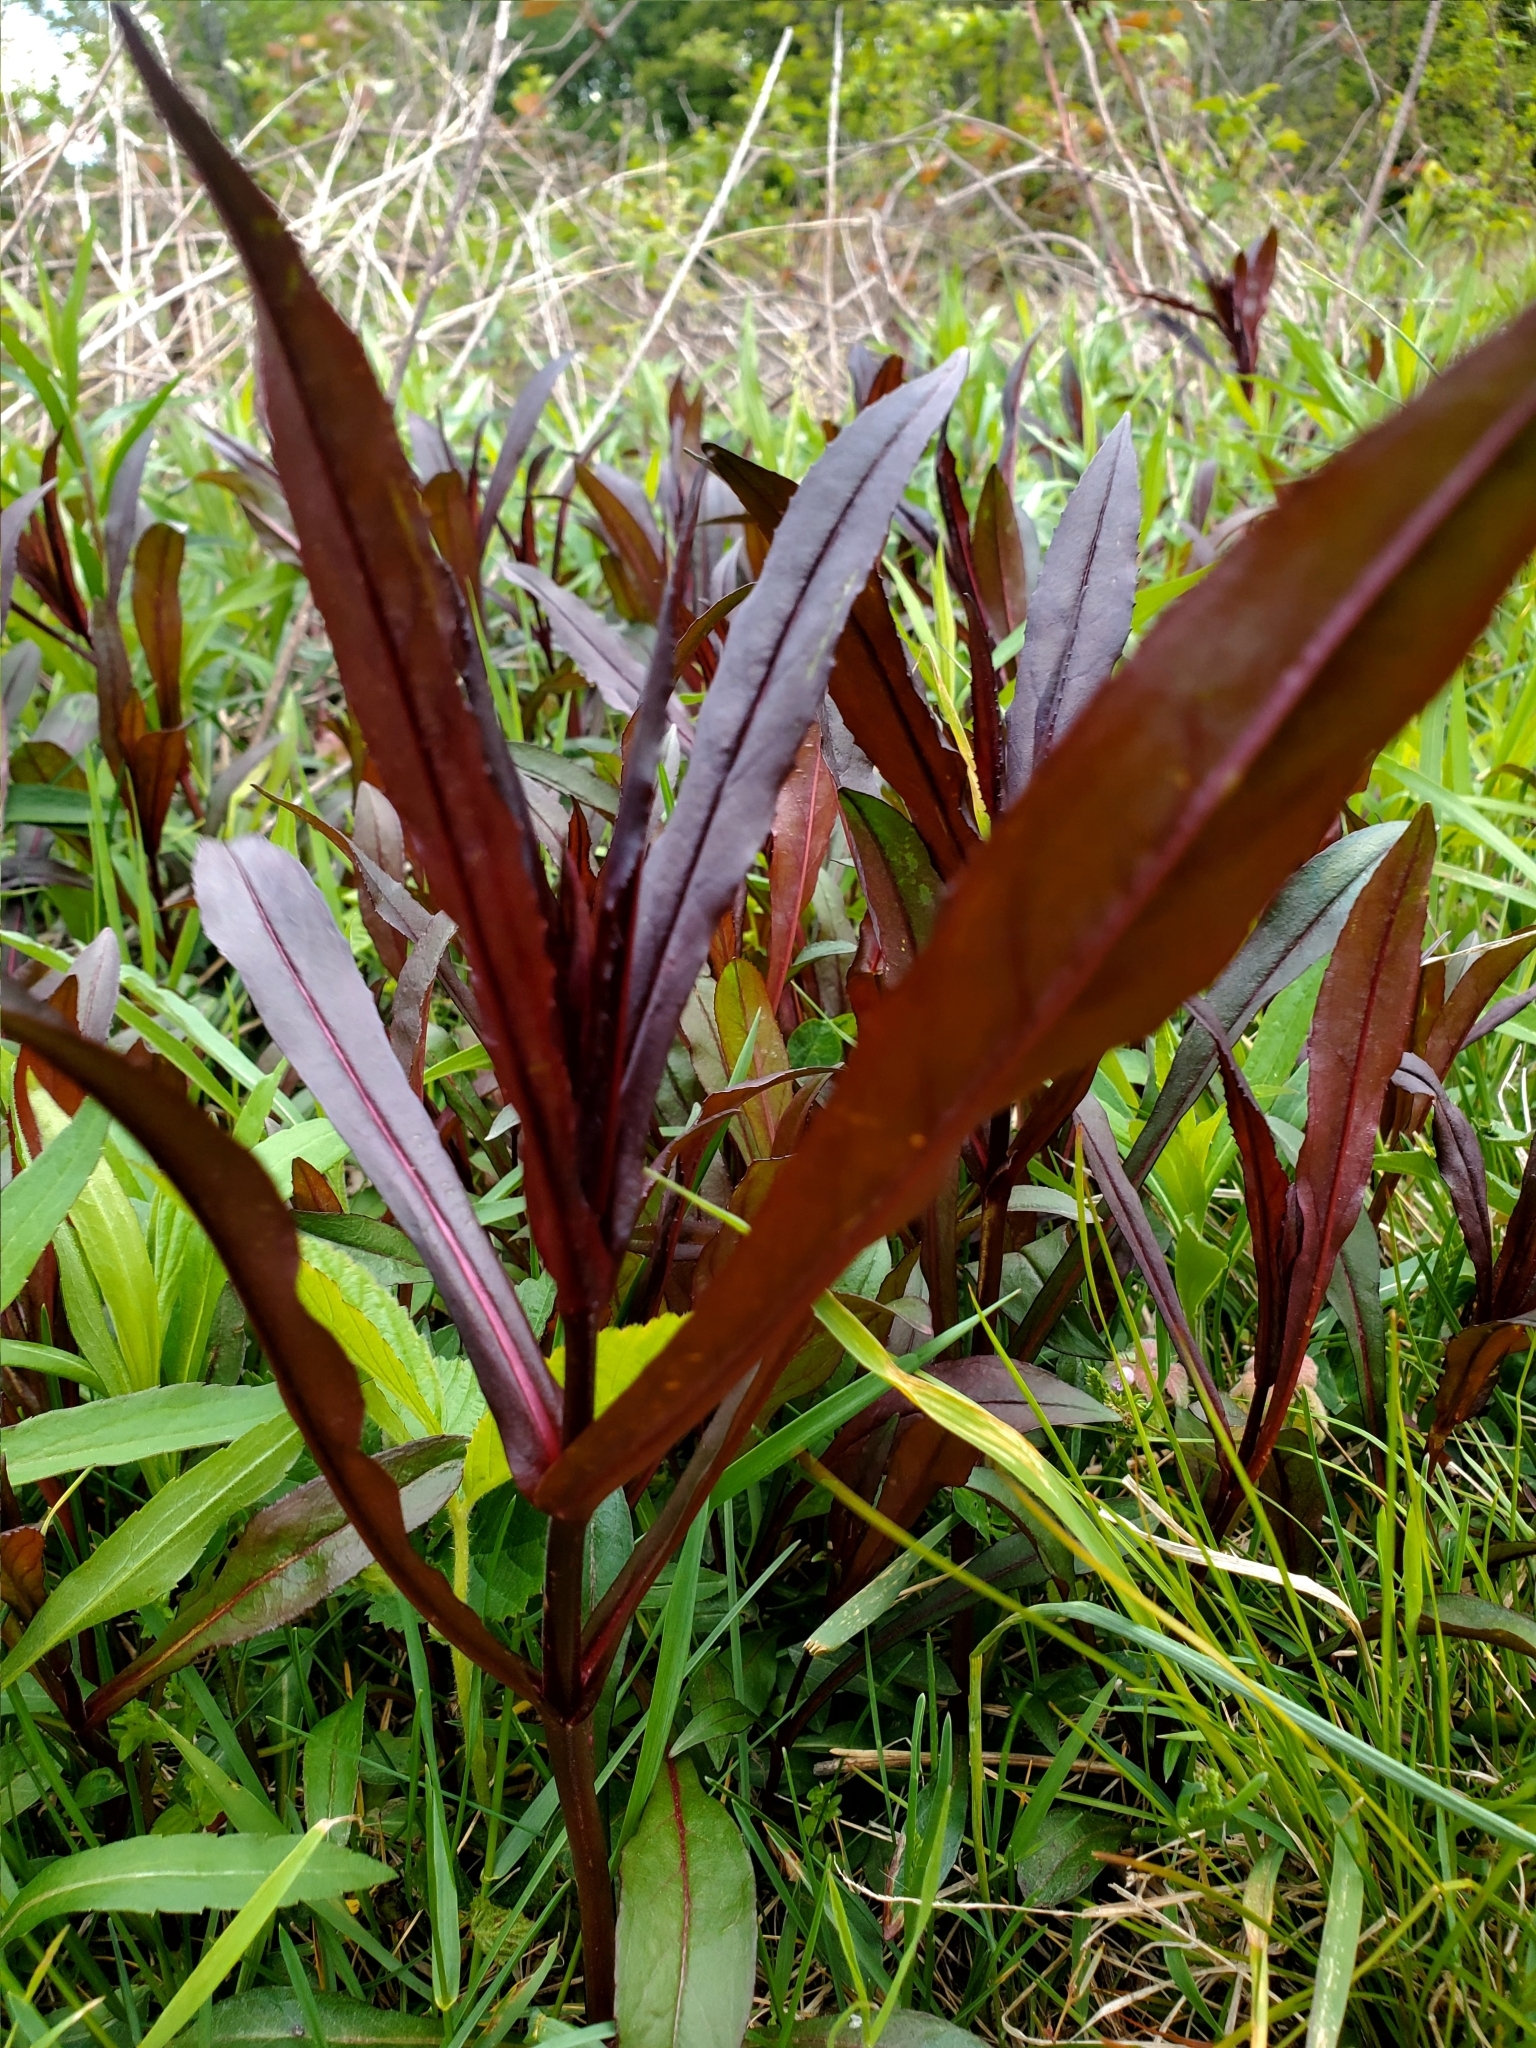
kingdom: Plantae
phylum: Tracheophyta
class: Magnoliopsida
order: Lamiales
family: Plantaginaceae
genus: Penstemon
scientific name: Penstemon digitalis
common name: Foxglove beardtongue
